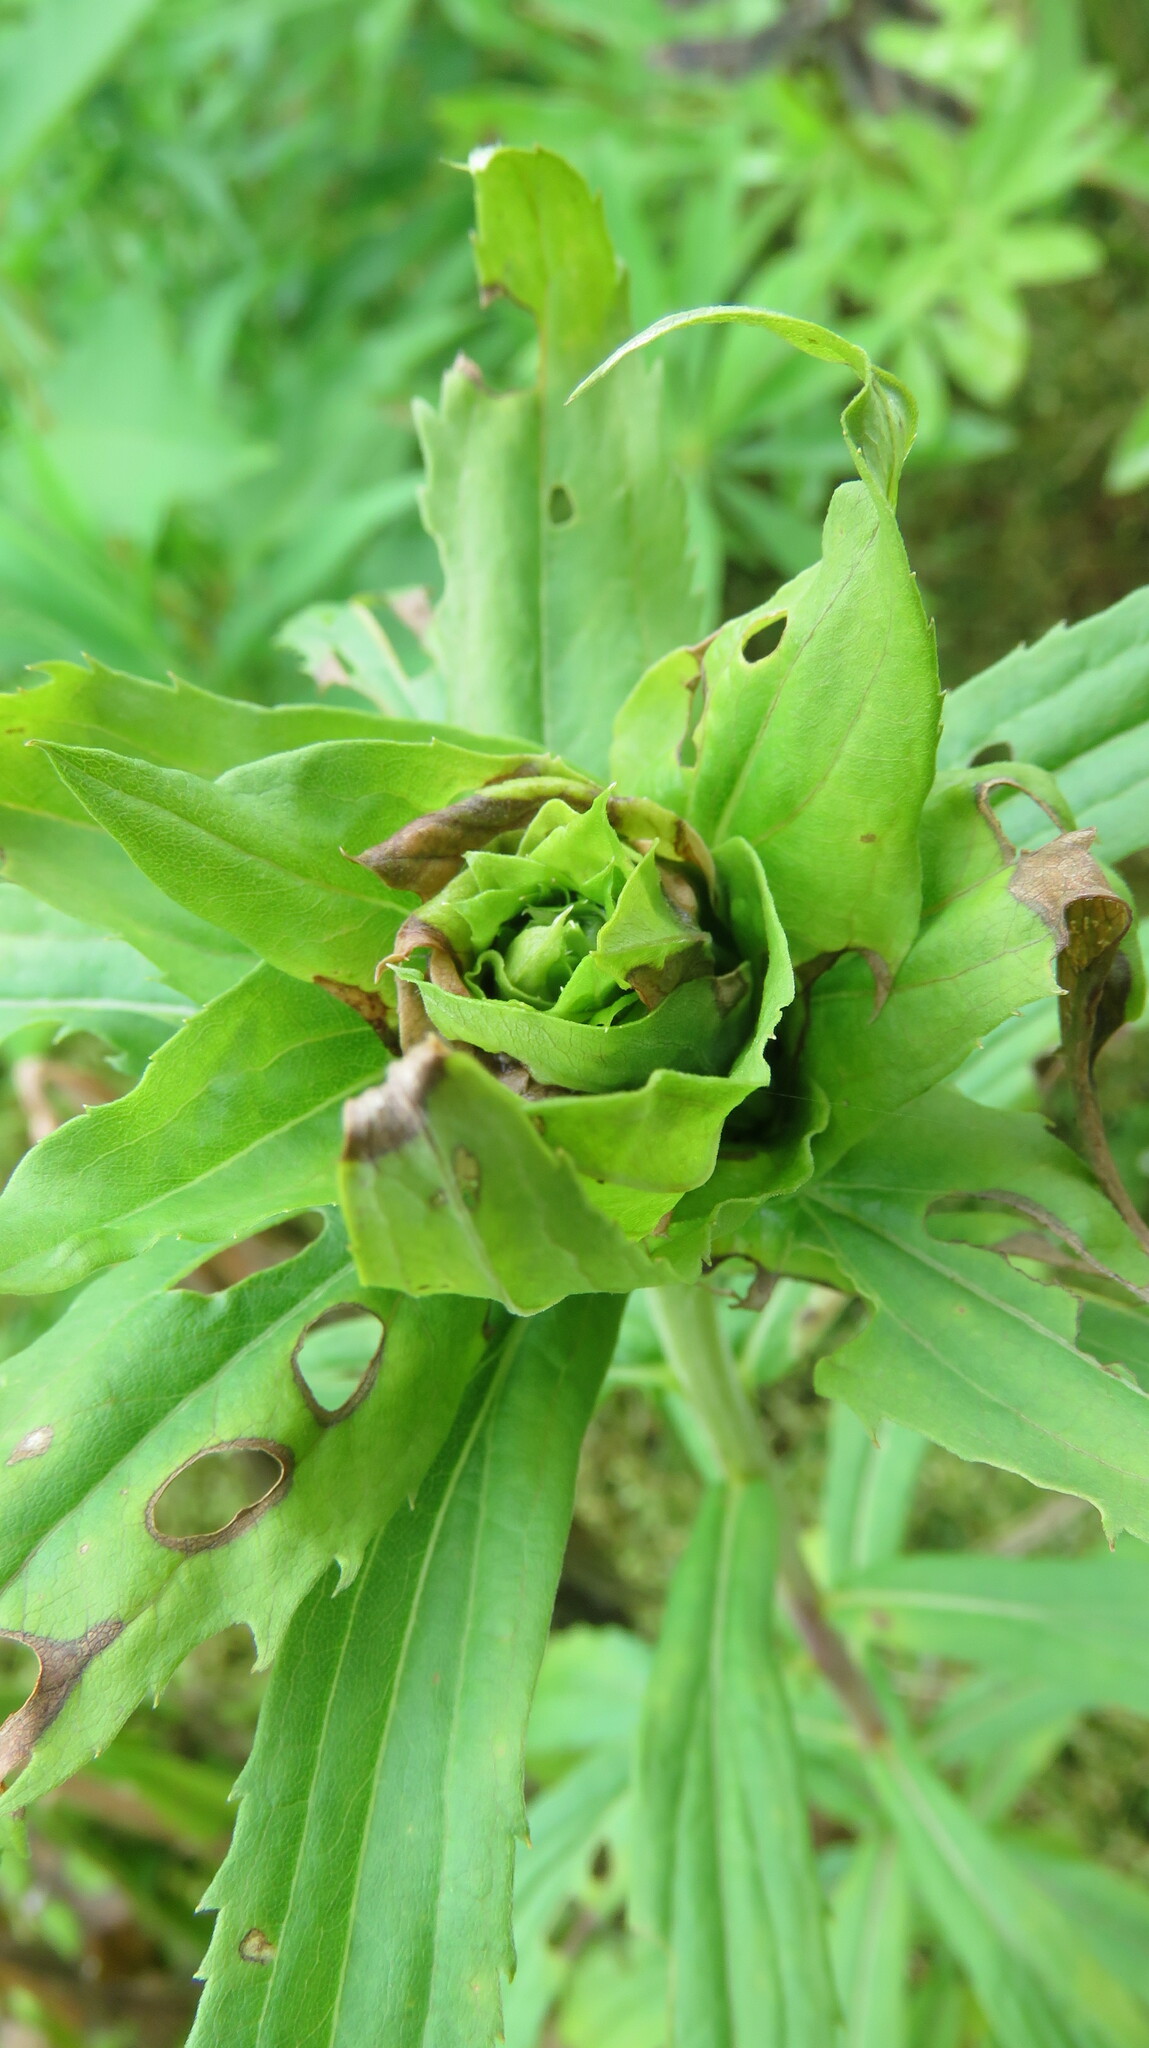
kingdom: Animalia
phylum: Arthropoda
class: Insecta
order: Diptera
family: Cecidomyiidae
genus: Rhopalomyia
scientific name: Rhopalomyia solidaginis
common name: Goldenrod bunch gall midge
